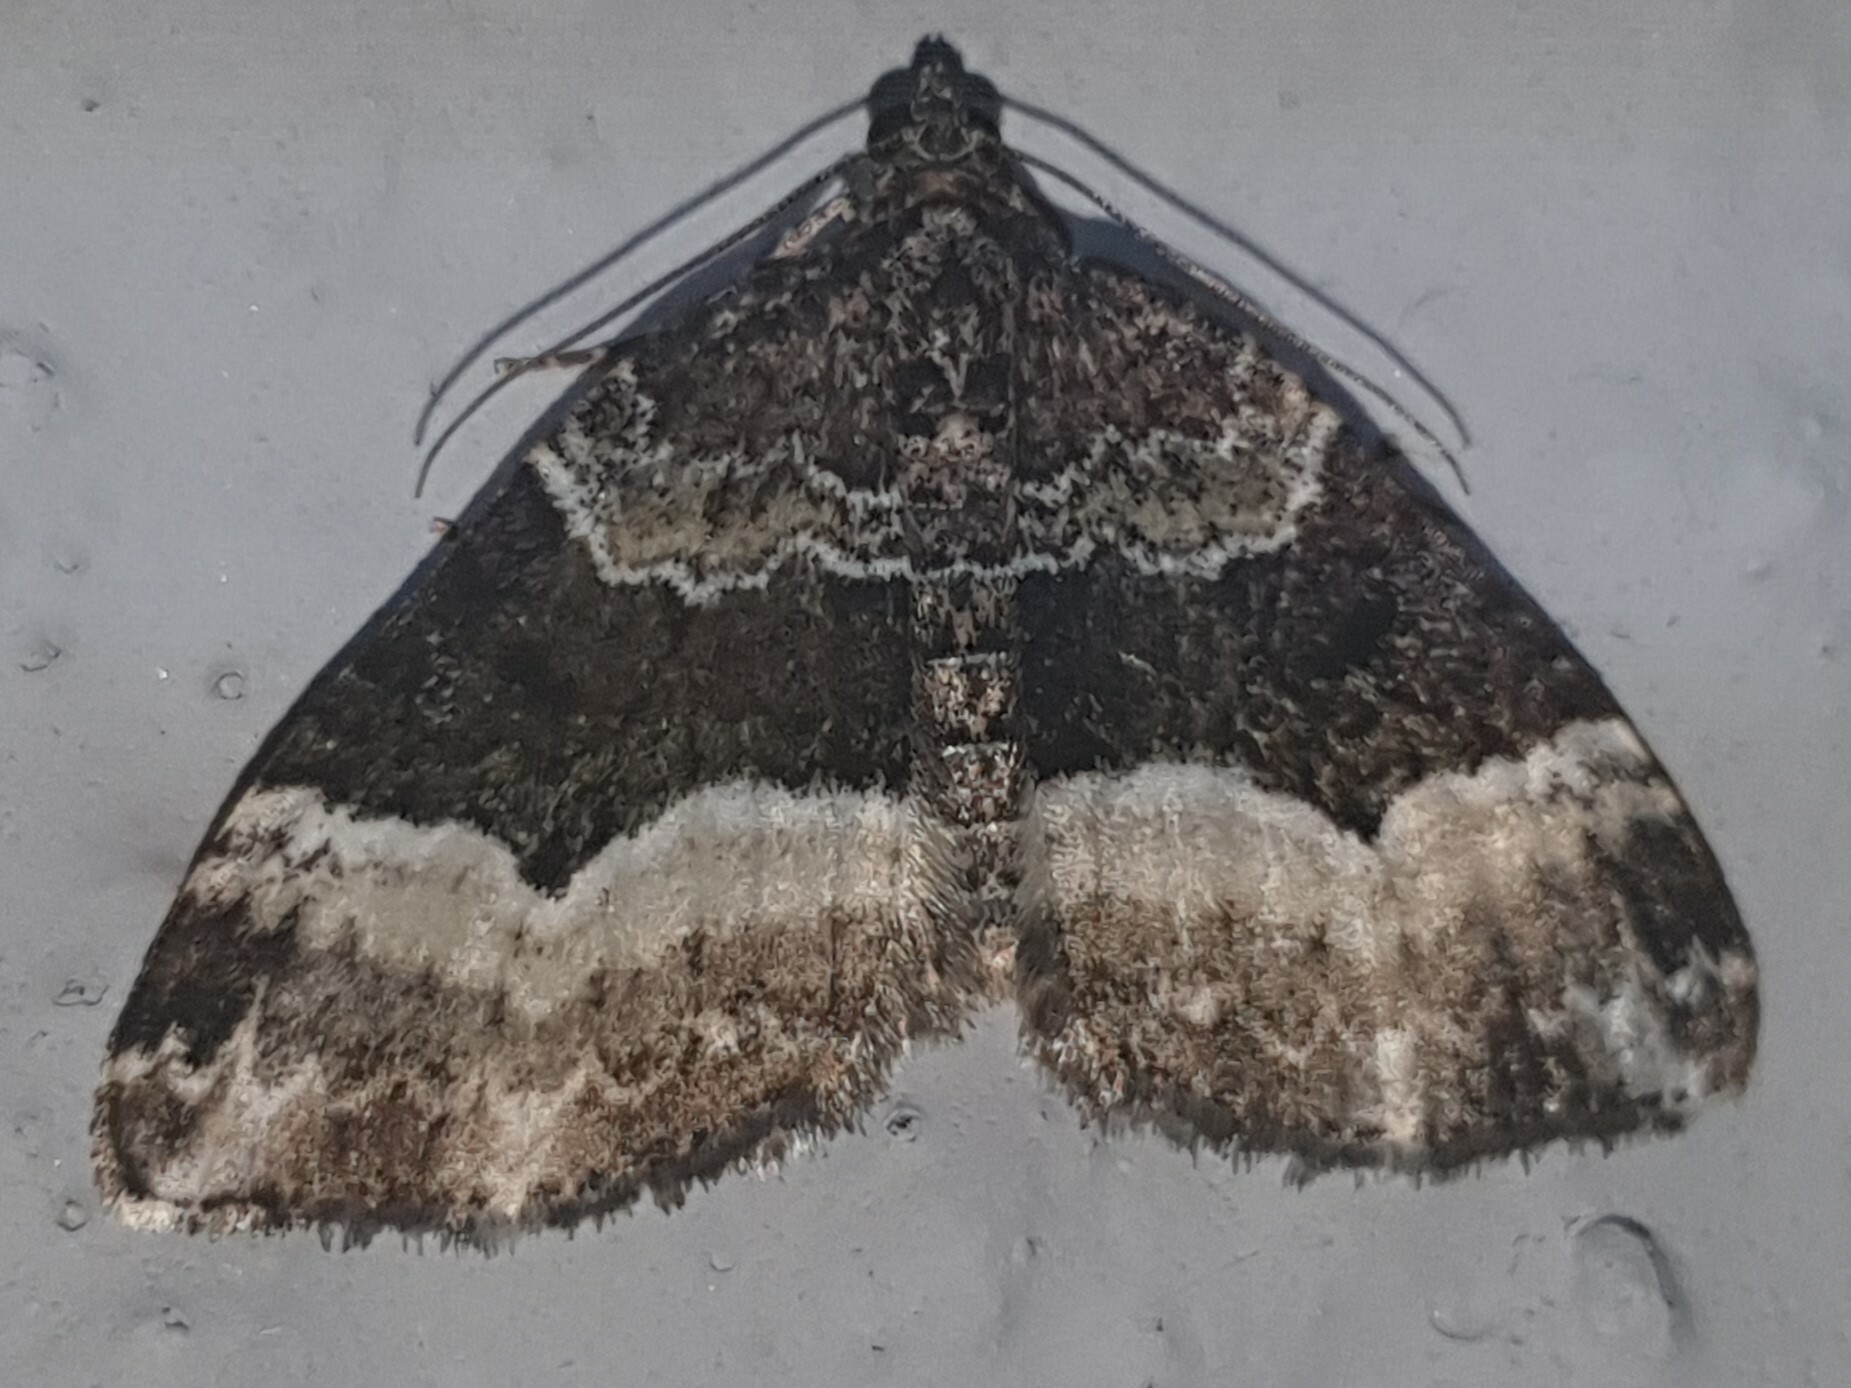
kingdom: Animalia
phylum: Arthropoda
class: Insecta
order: Lepidoptera
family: Geometridae
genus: Euphyia
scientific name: Euphyia unangulata
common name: Sharp-angled carpet
